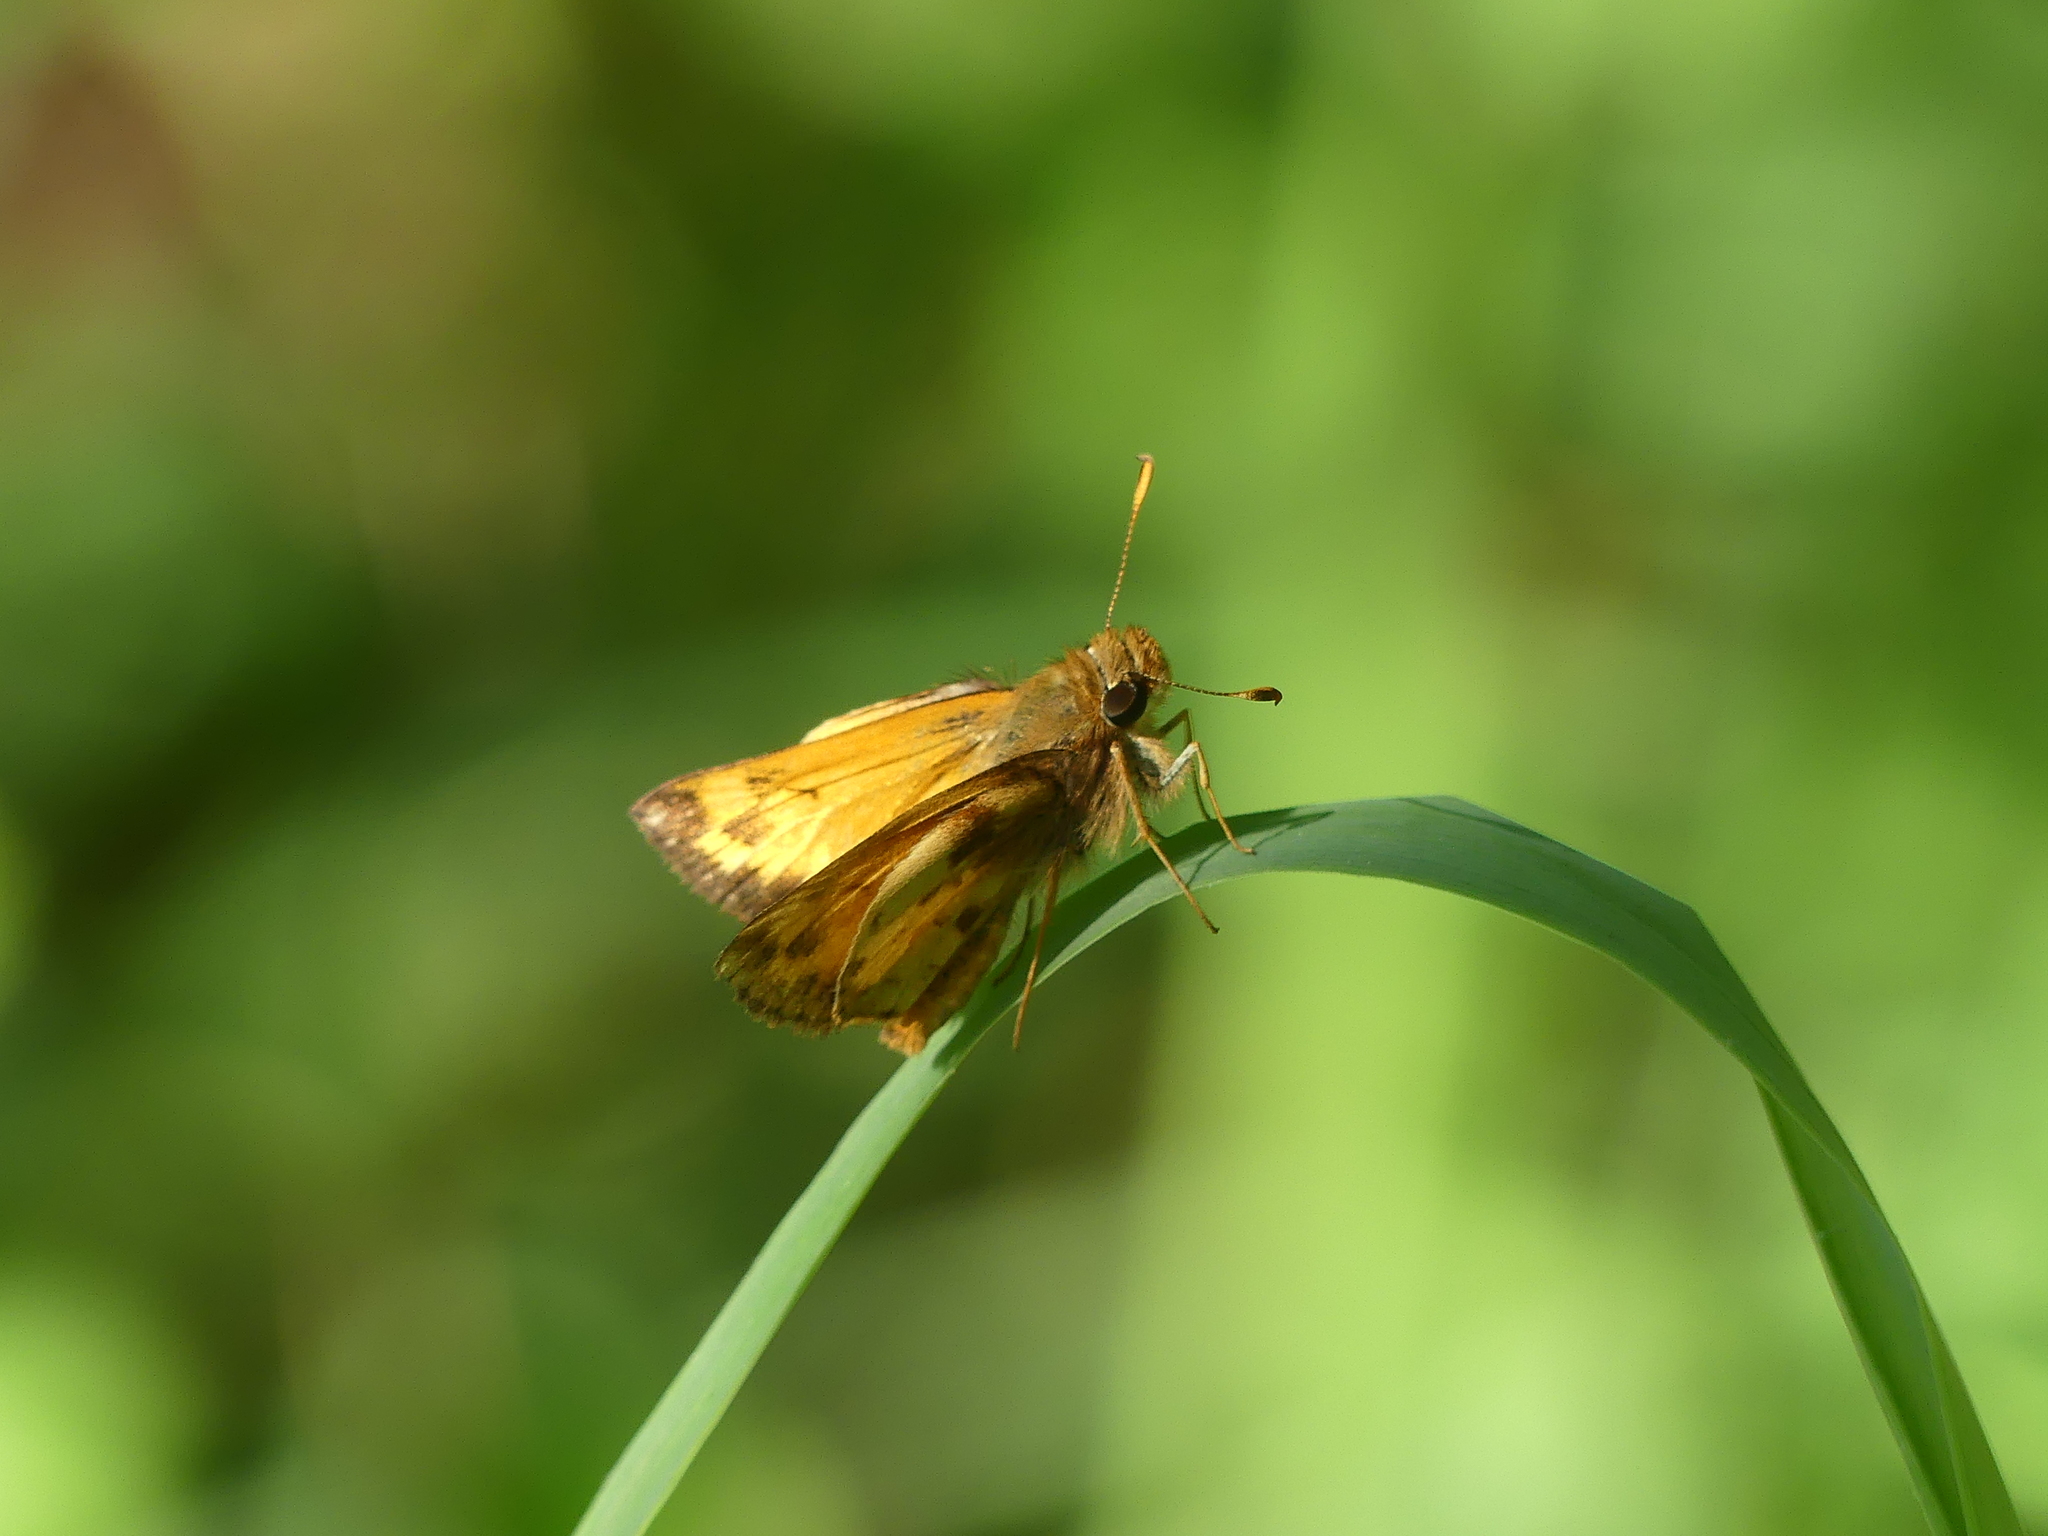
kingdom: Animalia
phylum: Arthropoda
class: Insecta
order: Lepidoptera
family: Hesperiidae
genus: Lon
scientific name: Lon zabulon
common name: Zabulon skipper
